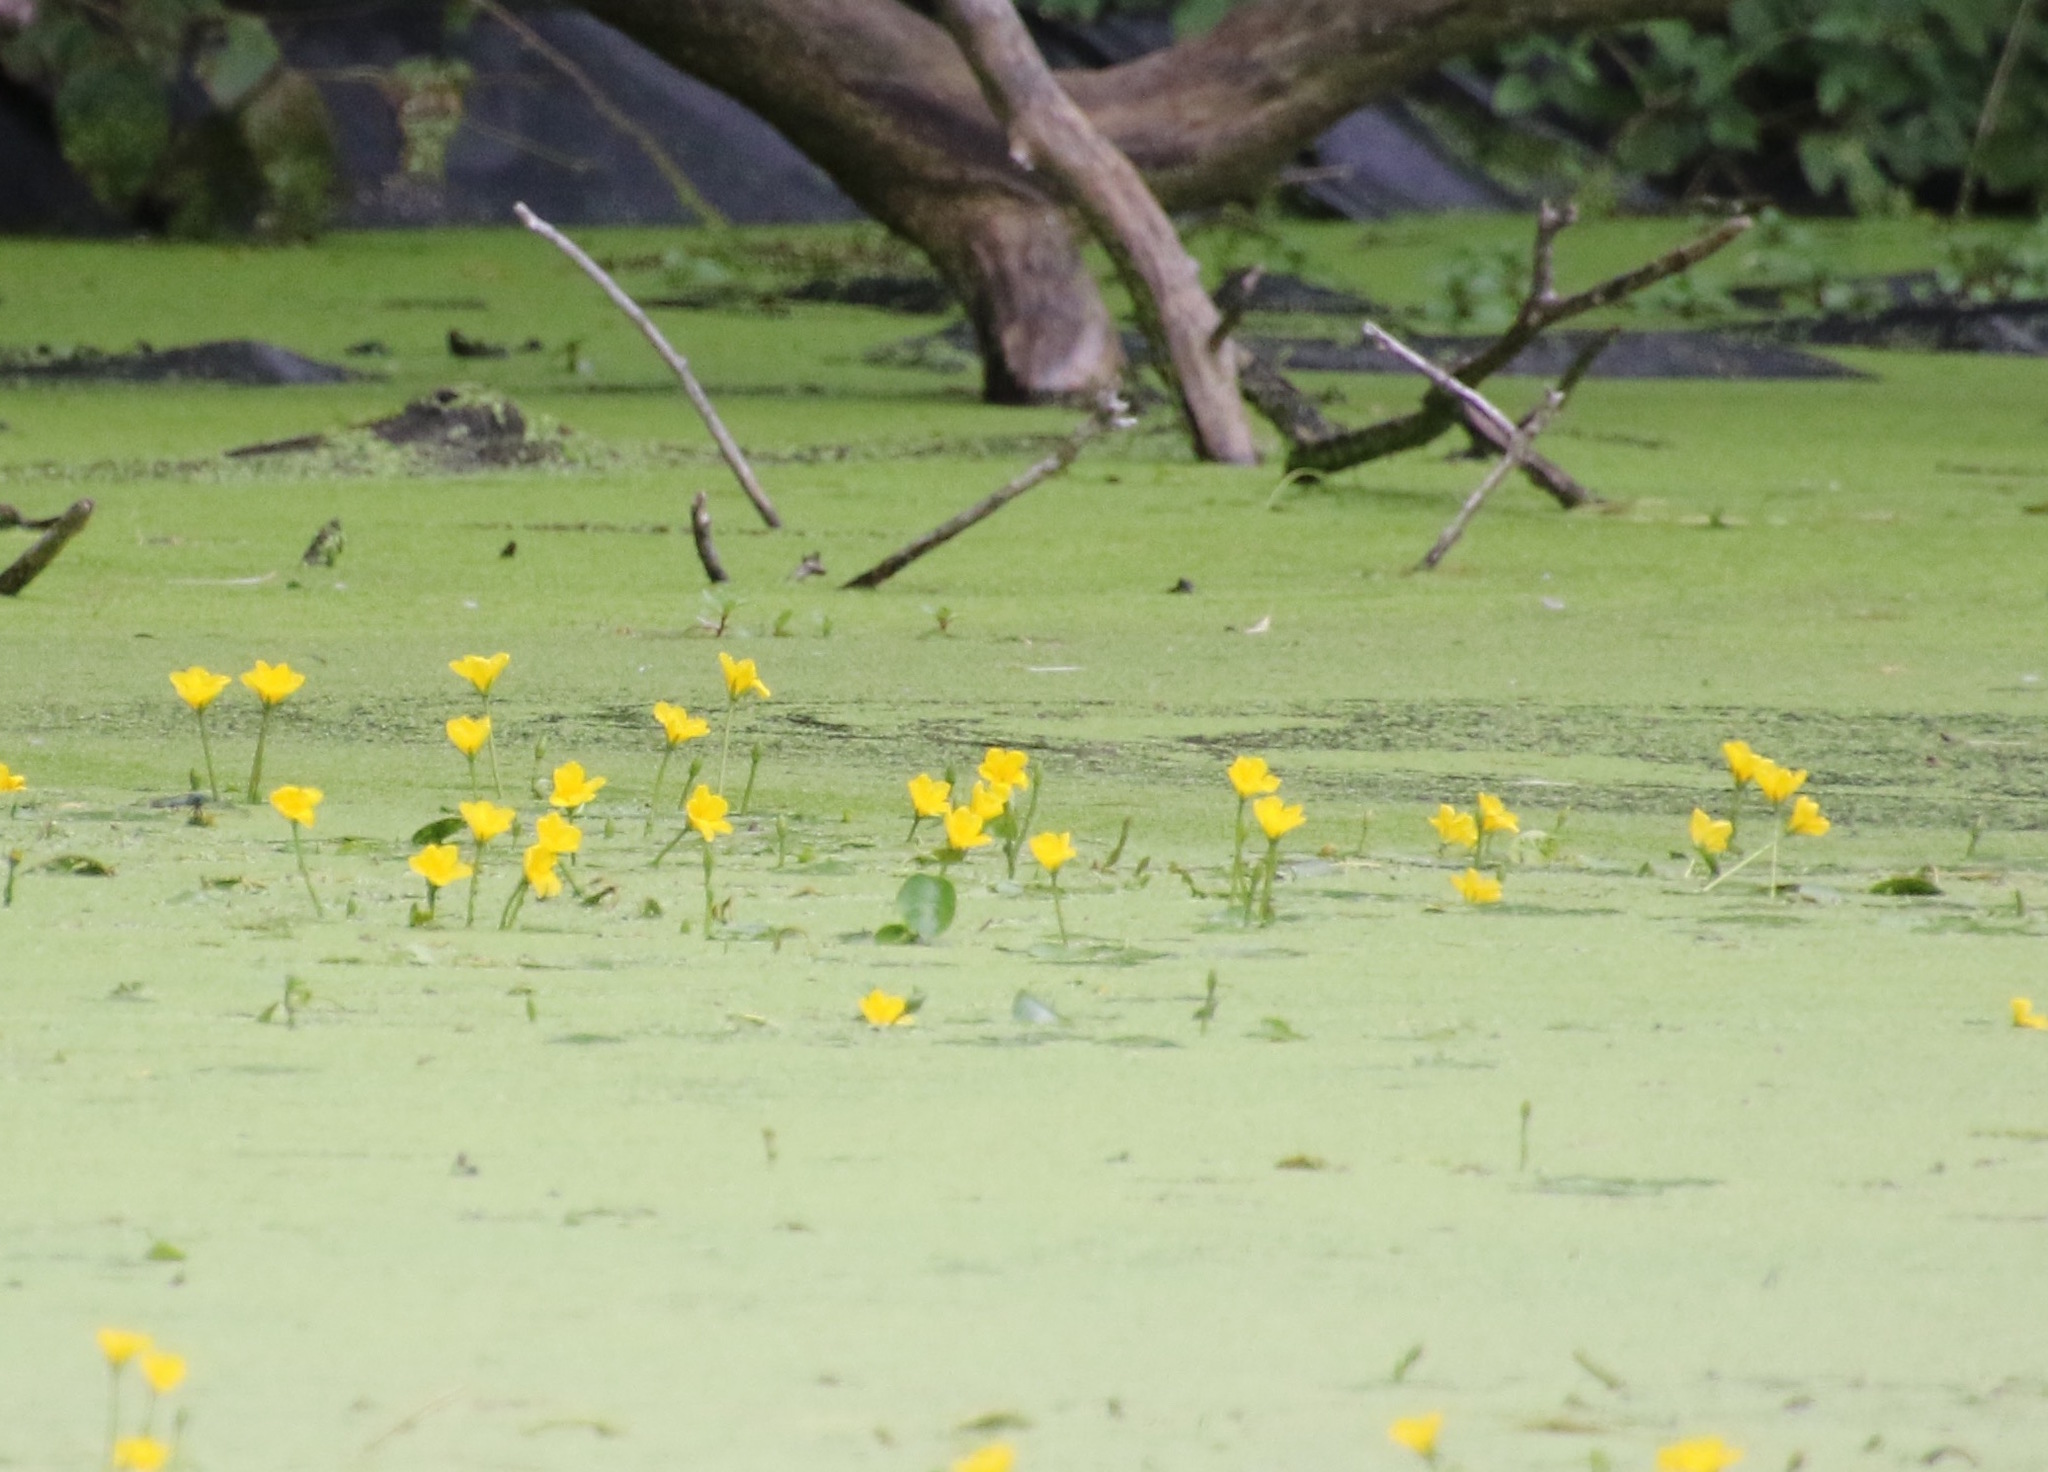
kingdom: Plantae
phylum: Tracheophyta
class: Magnoliopsida
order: Asterales
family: Menyanthaceae
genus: Nymphoides
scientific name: Nymphoides peltata
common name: Fringed water-lily
